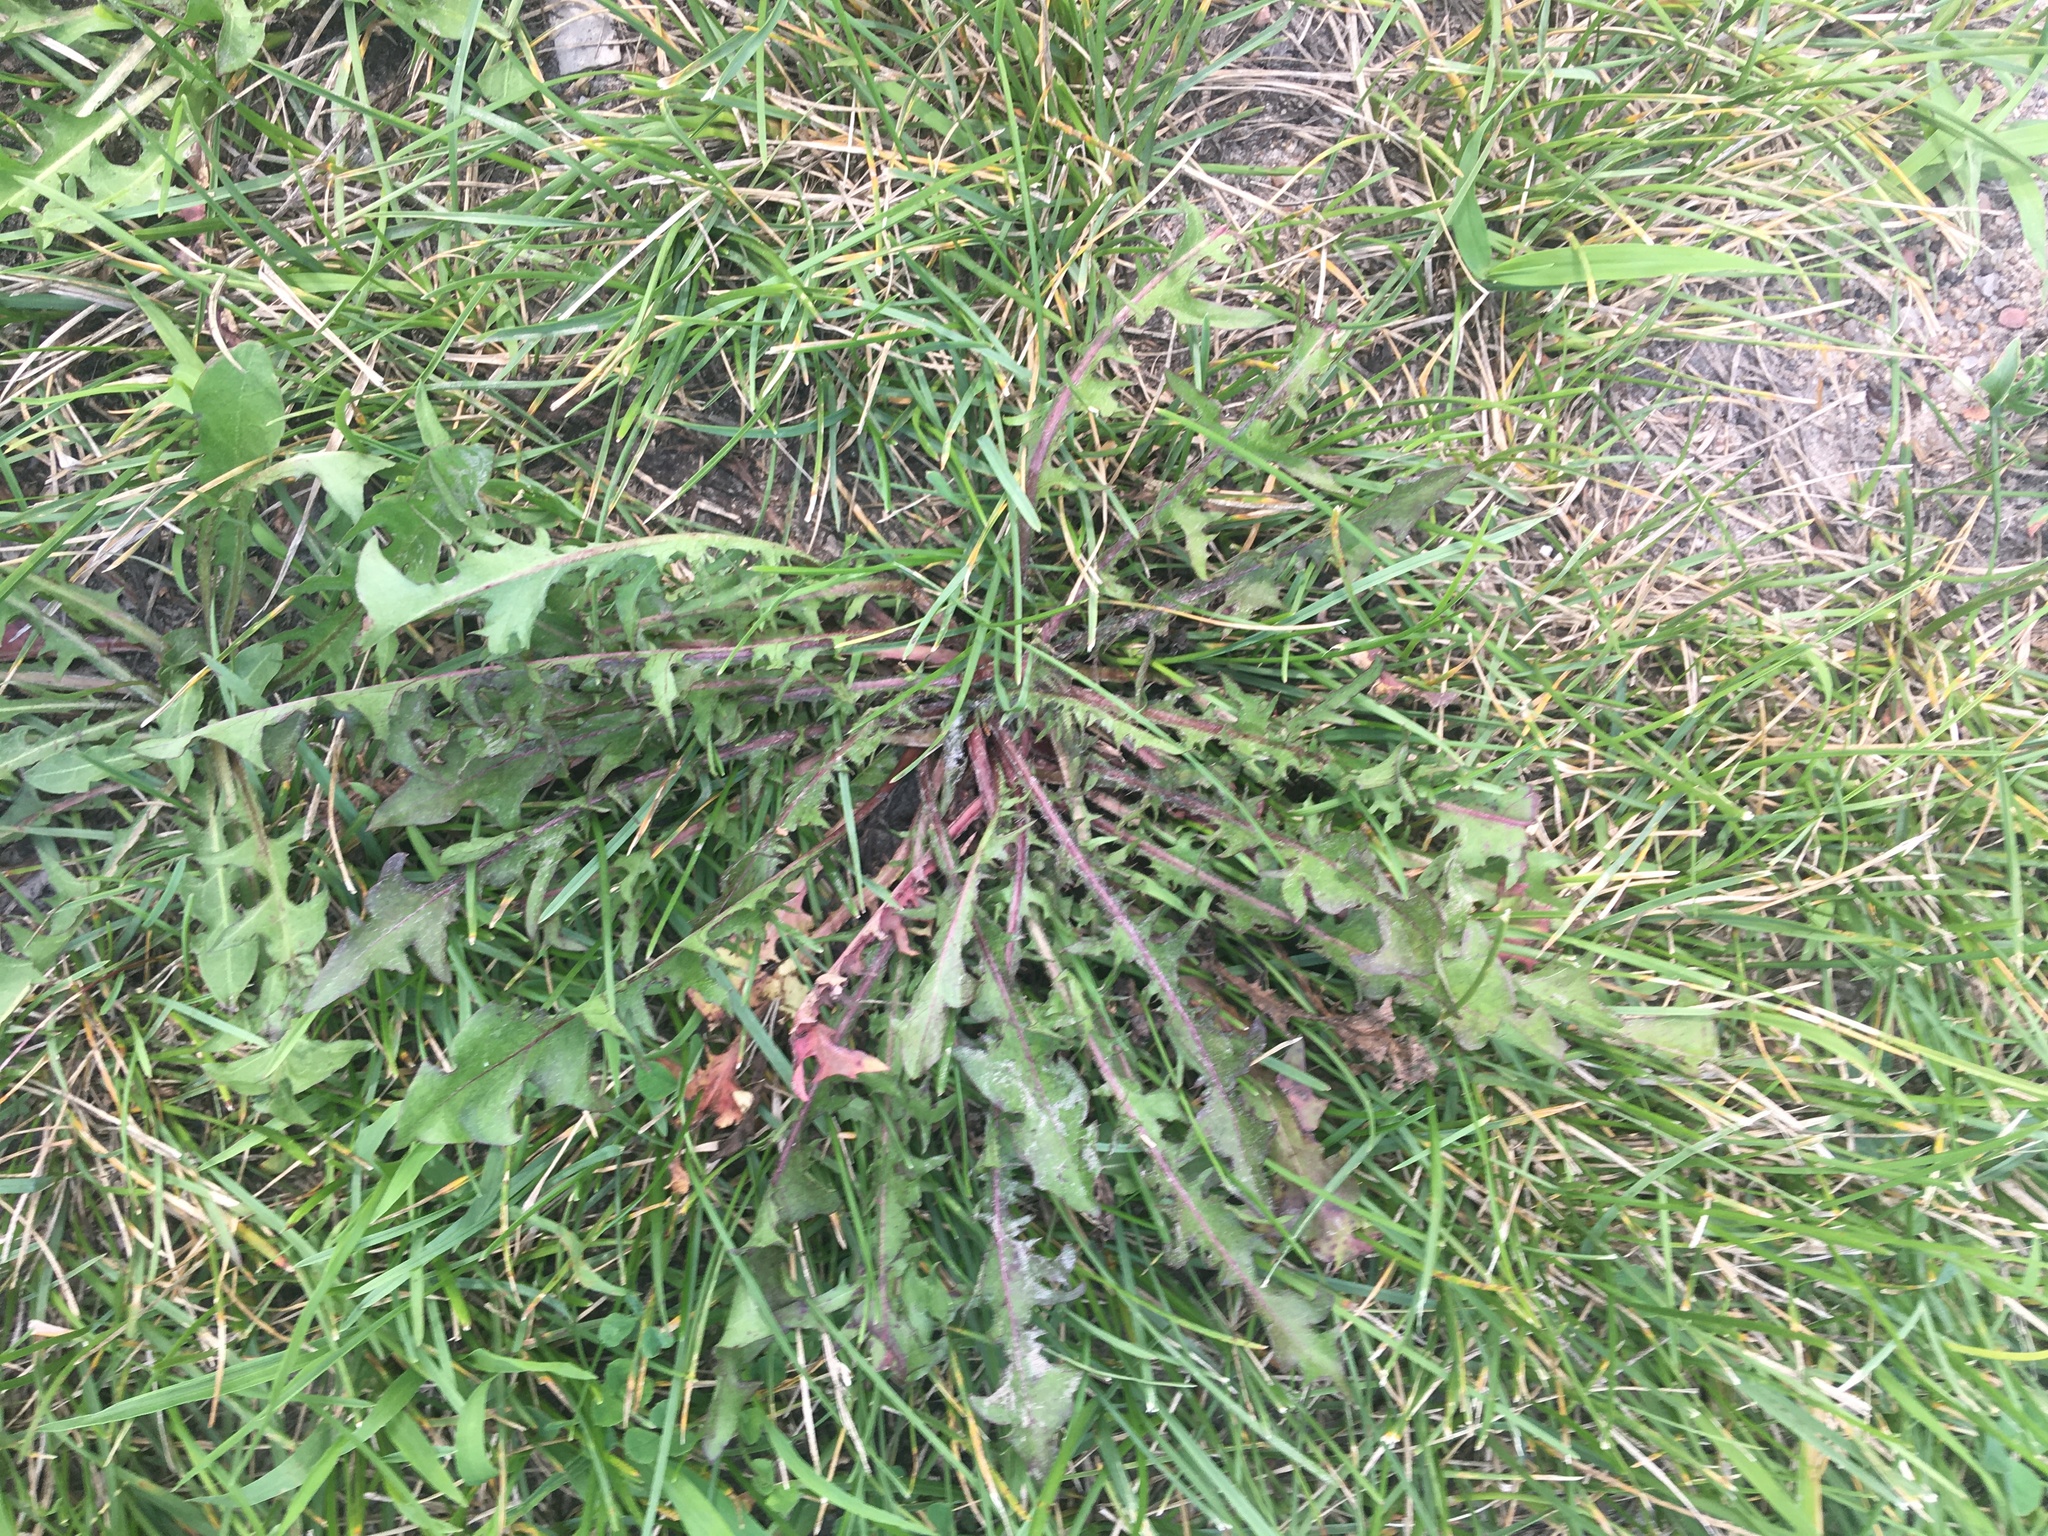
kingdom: Plantae
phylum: Tracheophyta
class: Magnoliopsida
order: Asterales
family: Asteraceae
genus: Taraxacum
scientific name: Taraxacum
